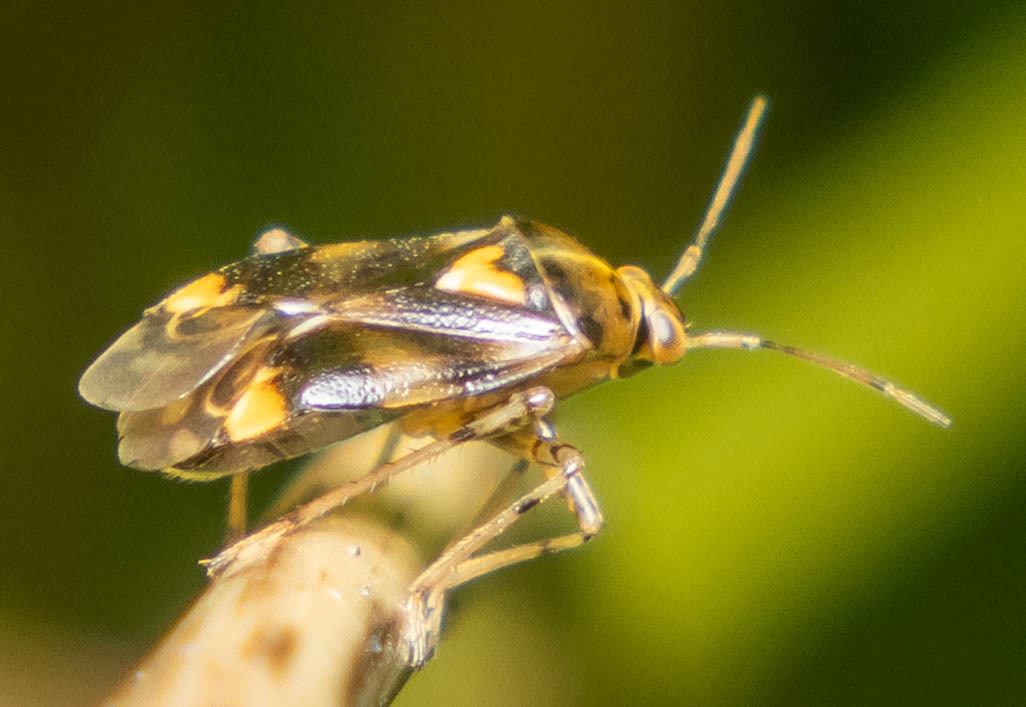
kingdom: Animalia
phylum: Arthropoda
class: Insecta
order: Hemiptera
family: Miridae
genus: Liocoris
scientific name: Liocoris tripustulatus
